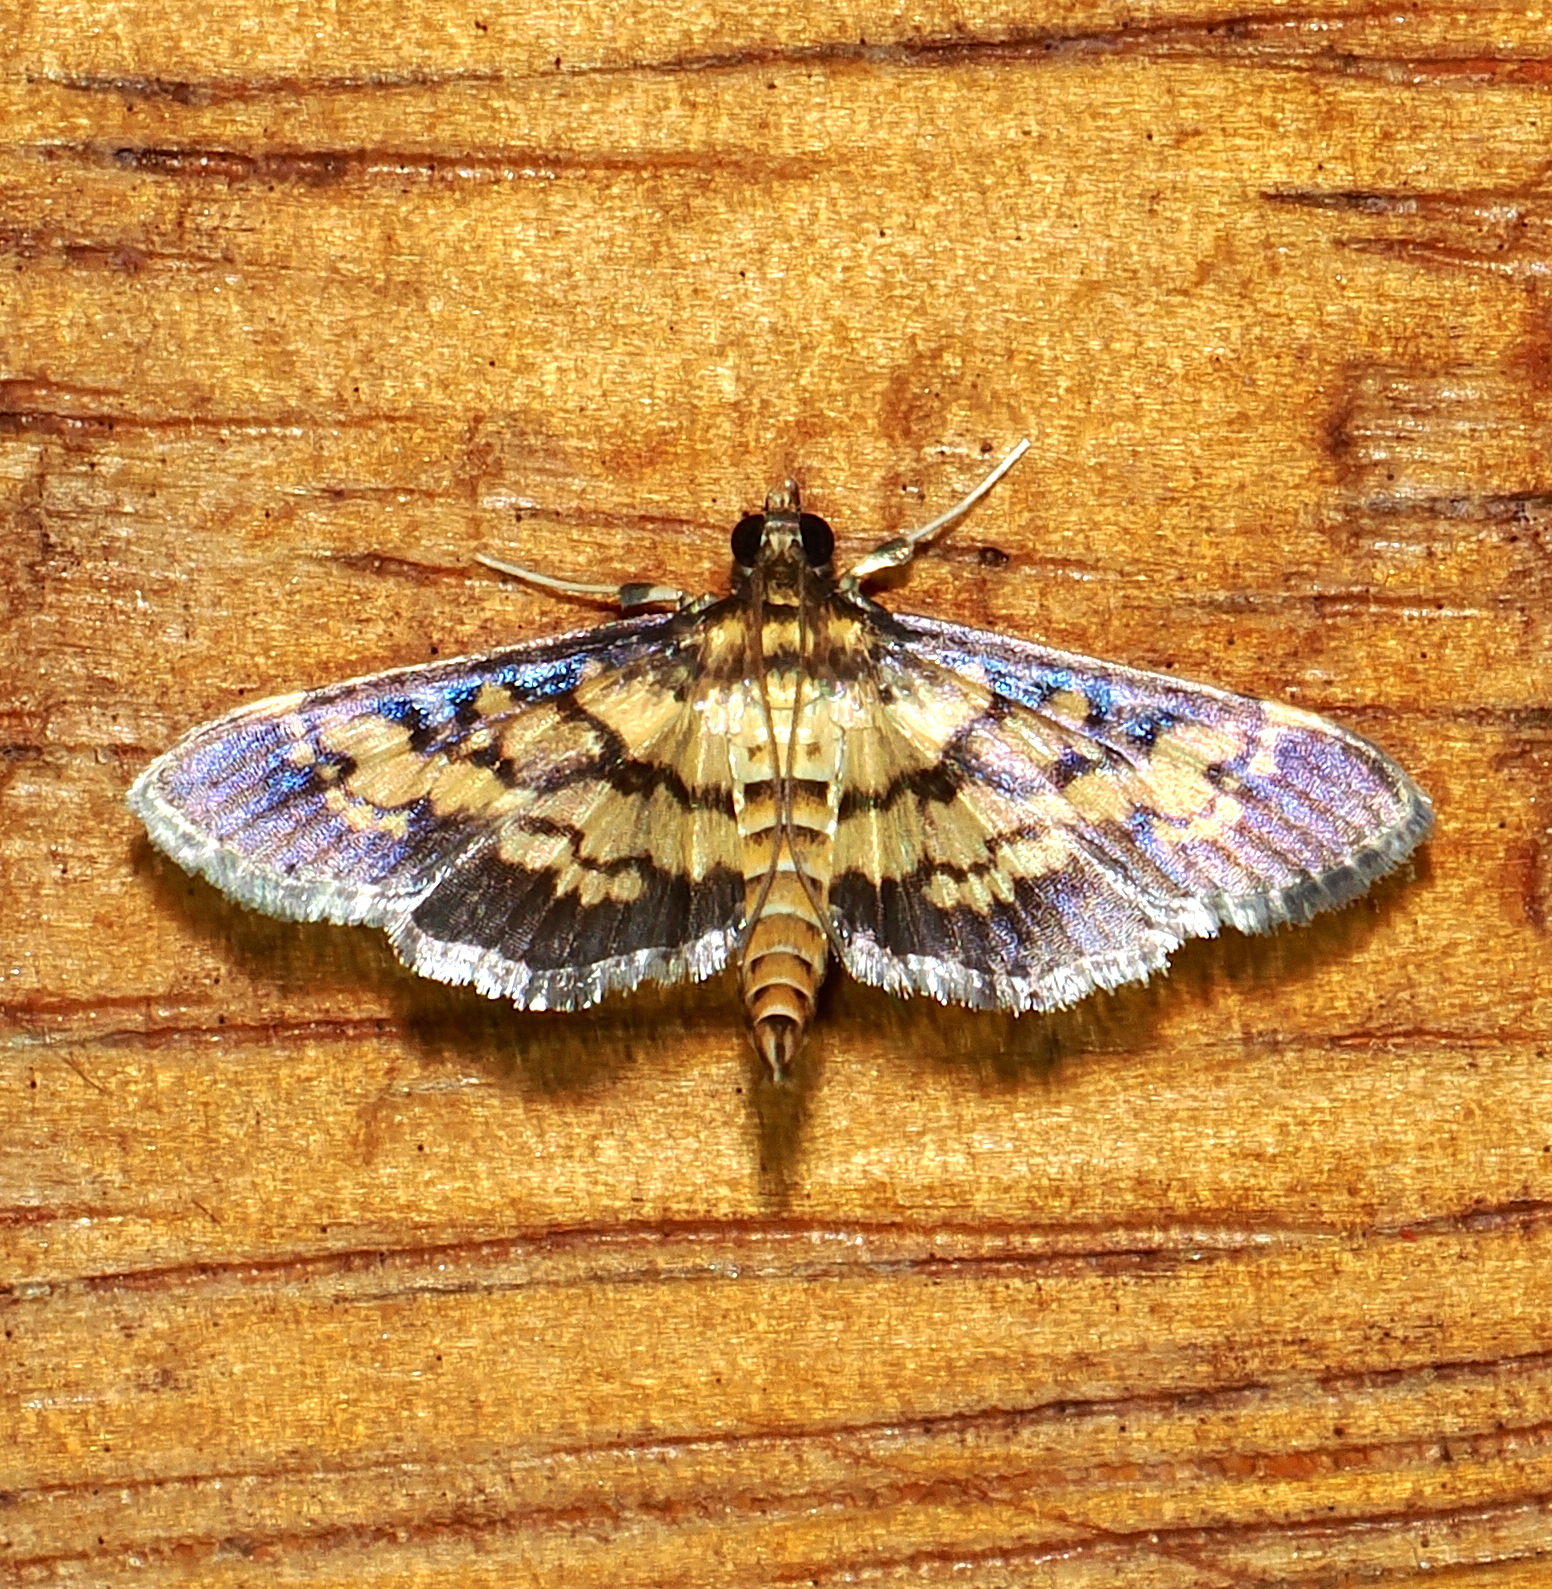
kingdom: Animalia
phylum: Arthropoda
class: Insecta
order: Lepidoptera
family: Crambidae
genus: Mimorista
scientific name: Mimorista botydalis
